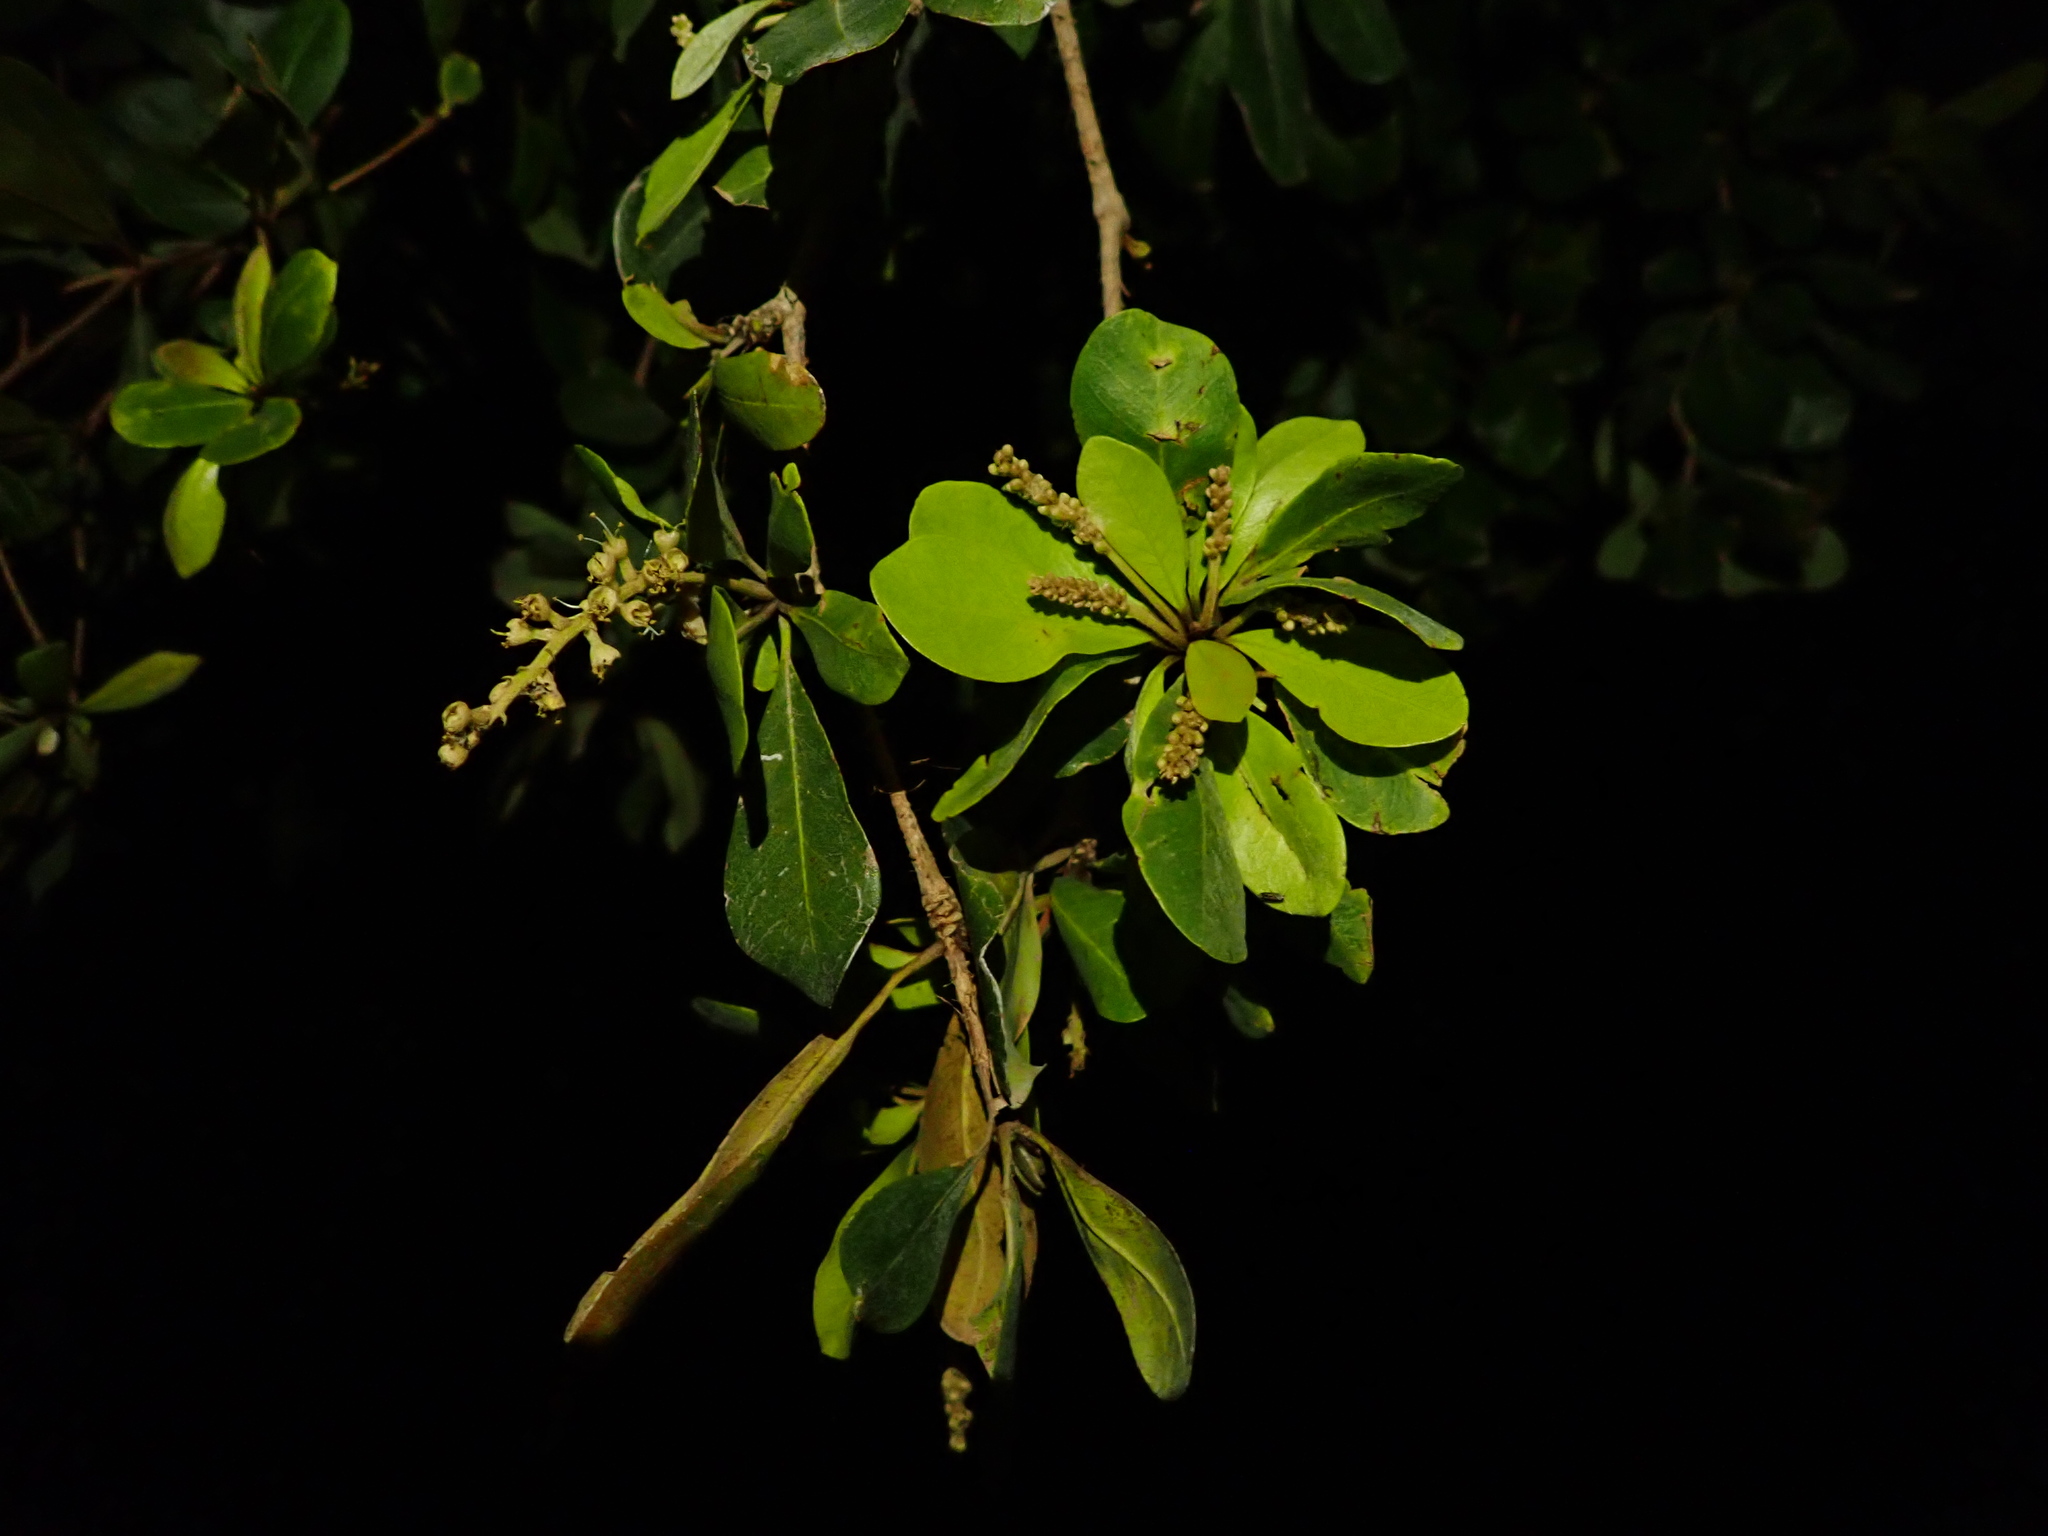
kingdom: Plantae
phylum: Tracheophyta
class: Magnoliopsida
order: Myrtales
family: Combretaceae
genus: Terminalia
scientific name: Terminalia buceras
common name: Black-olive
